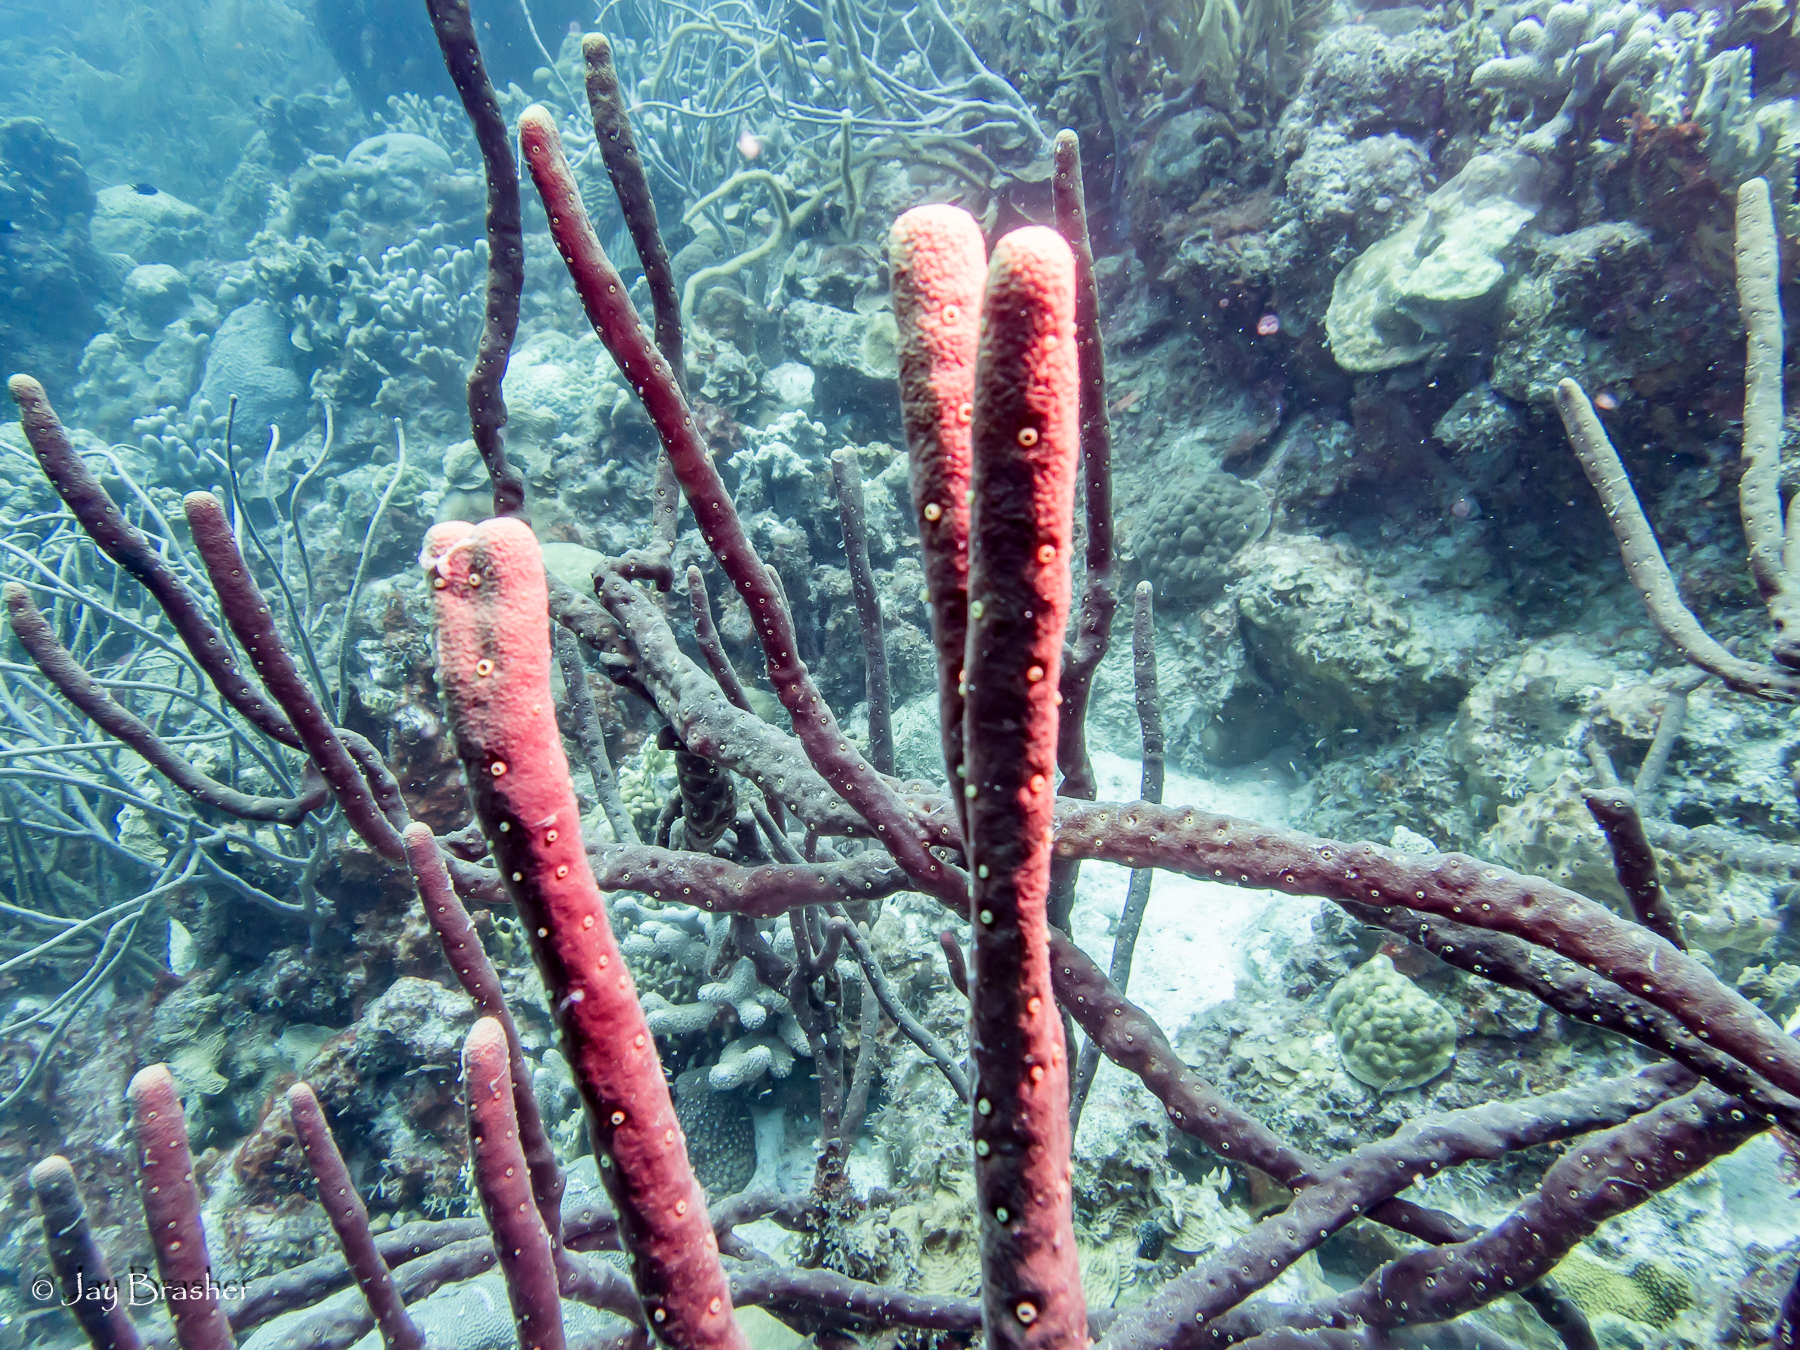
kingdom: Animalia
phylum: Porifera
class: Demospongiae
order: Verongiida
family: Aplysinidae
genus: Aplysina
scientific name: Aplysina cauliformis
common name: Branching candle sponge
